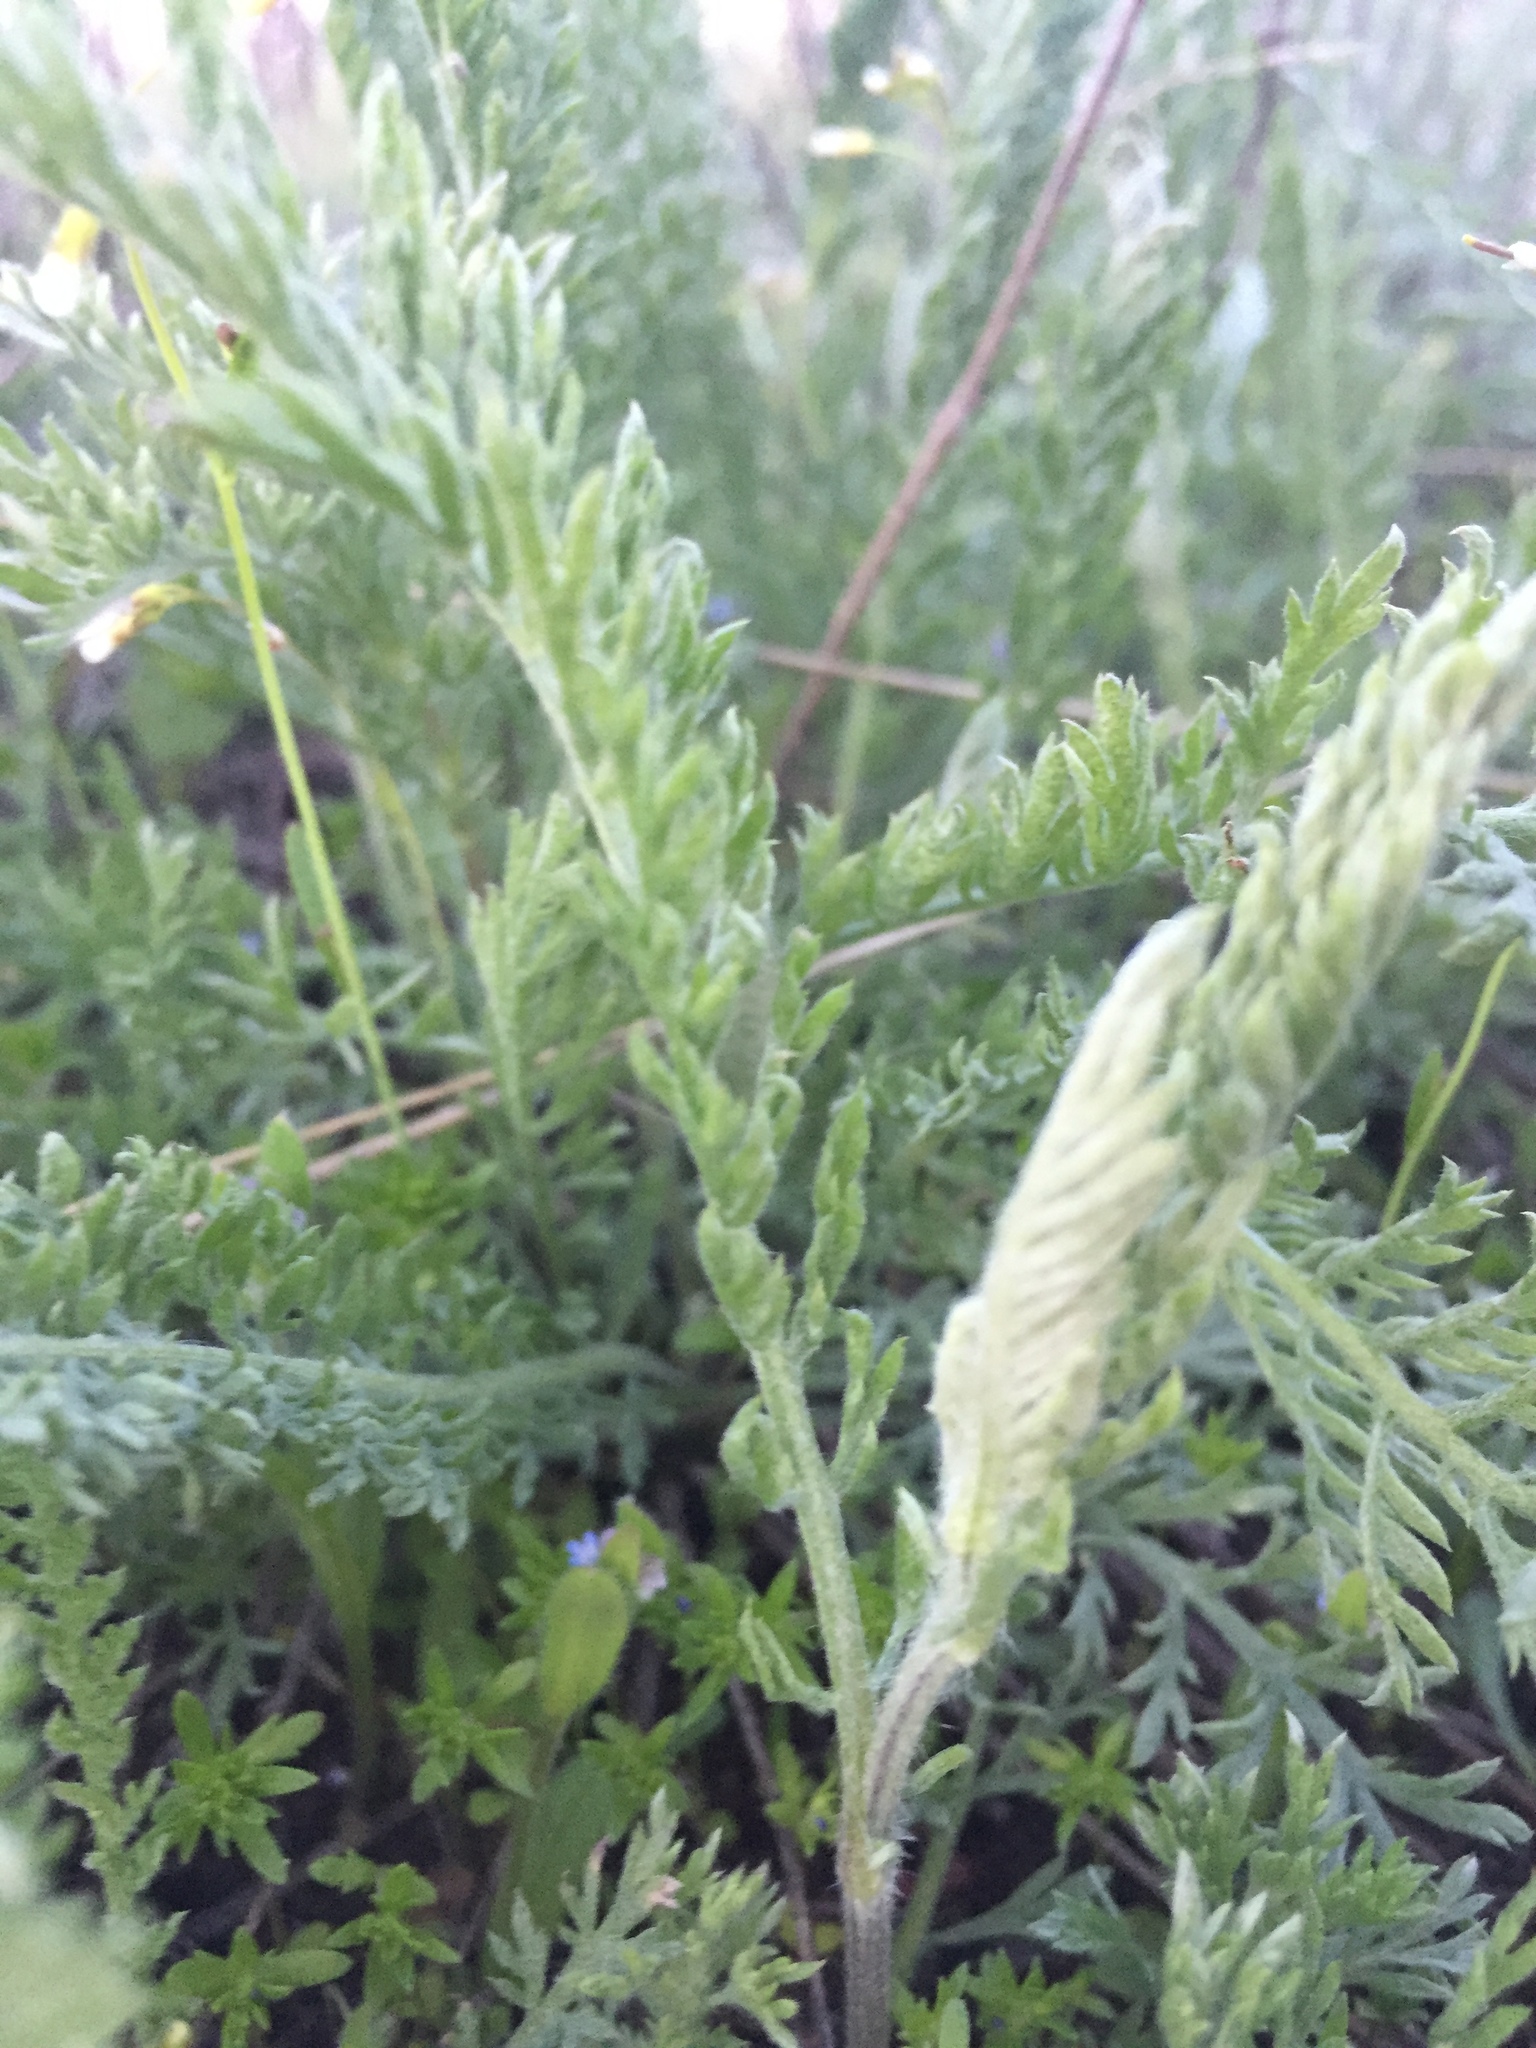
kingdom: Plantae
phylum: Tracheophyta
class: Magnoliopsida
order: Asterales
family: Asteraceae
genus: Achillea
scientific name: Achillea nobilis
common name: Noble yarrow
